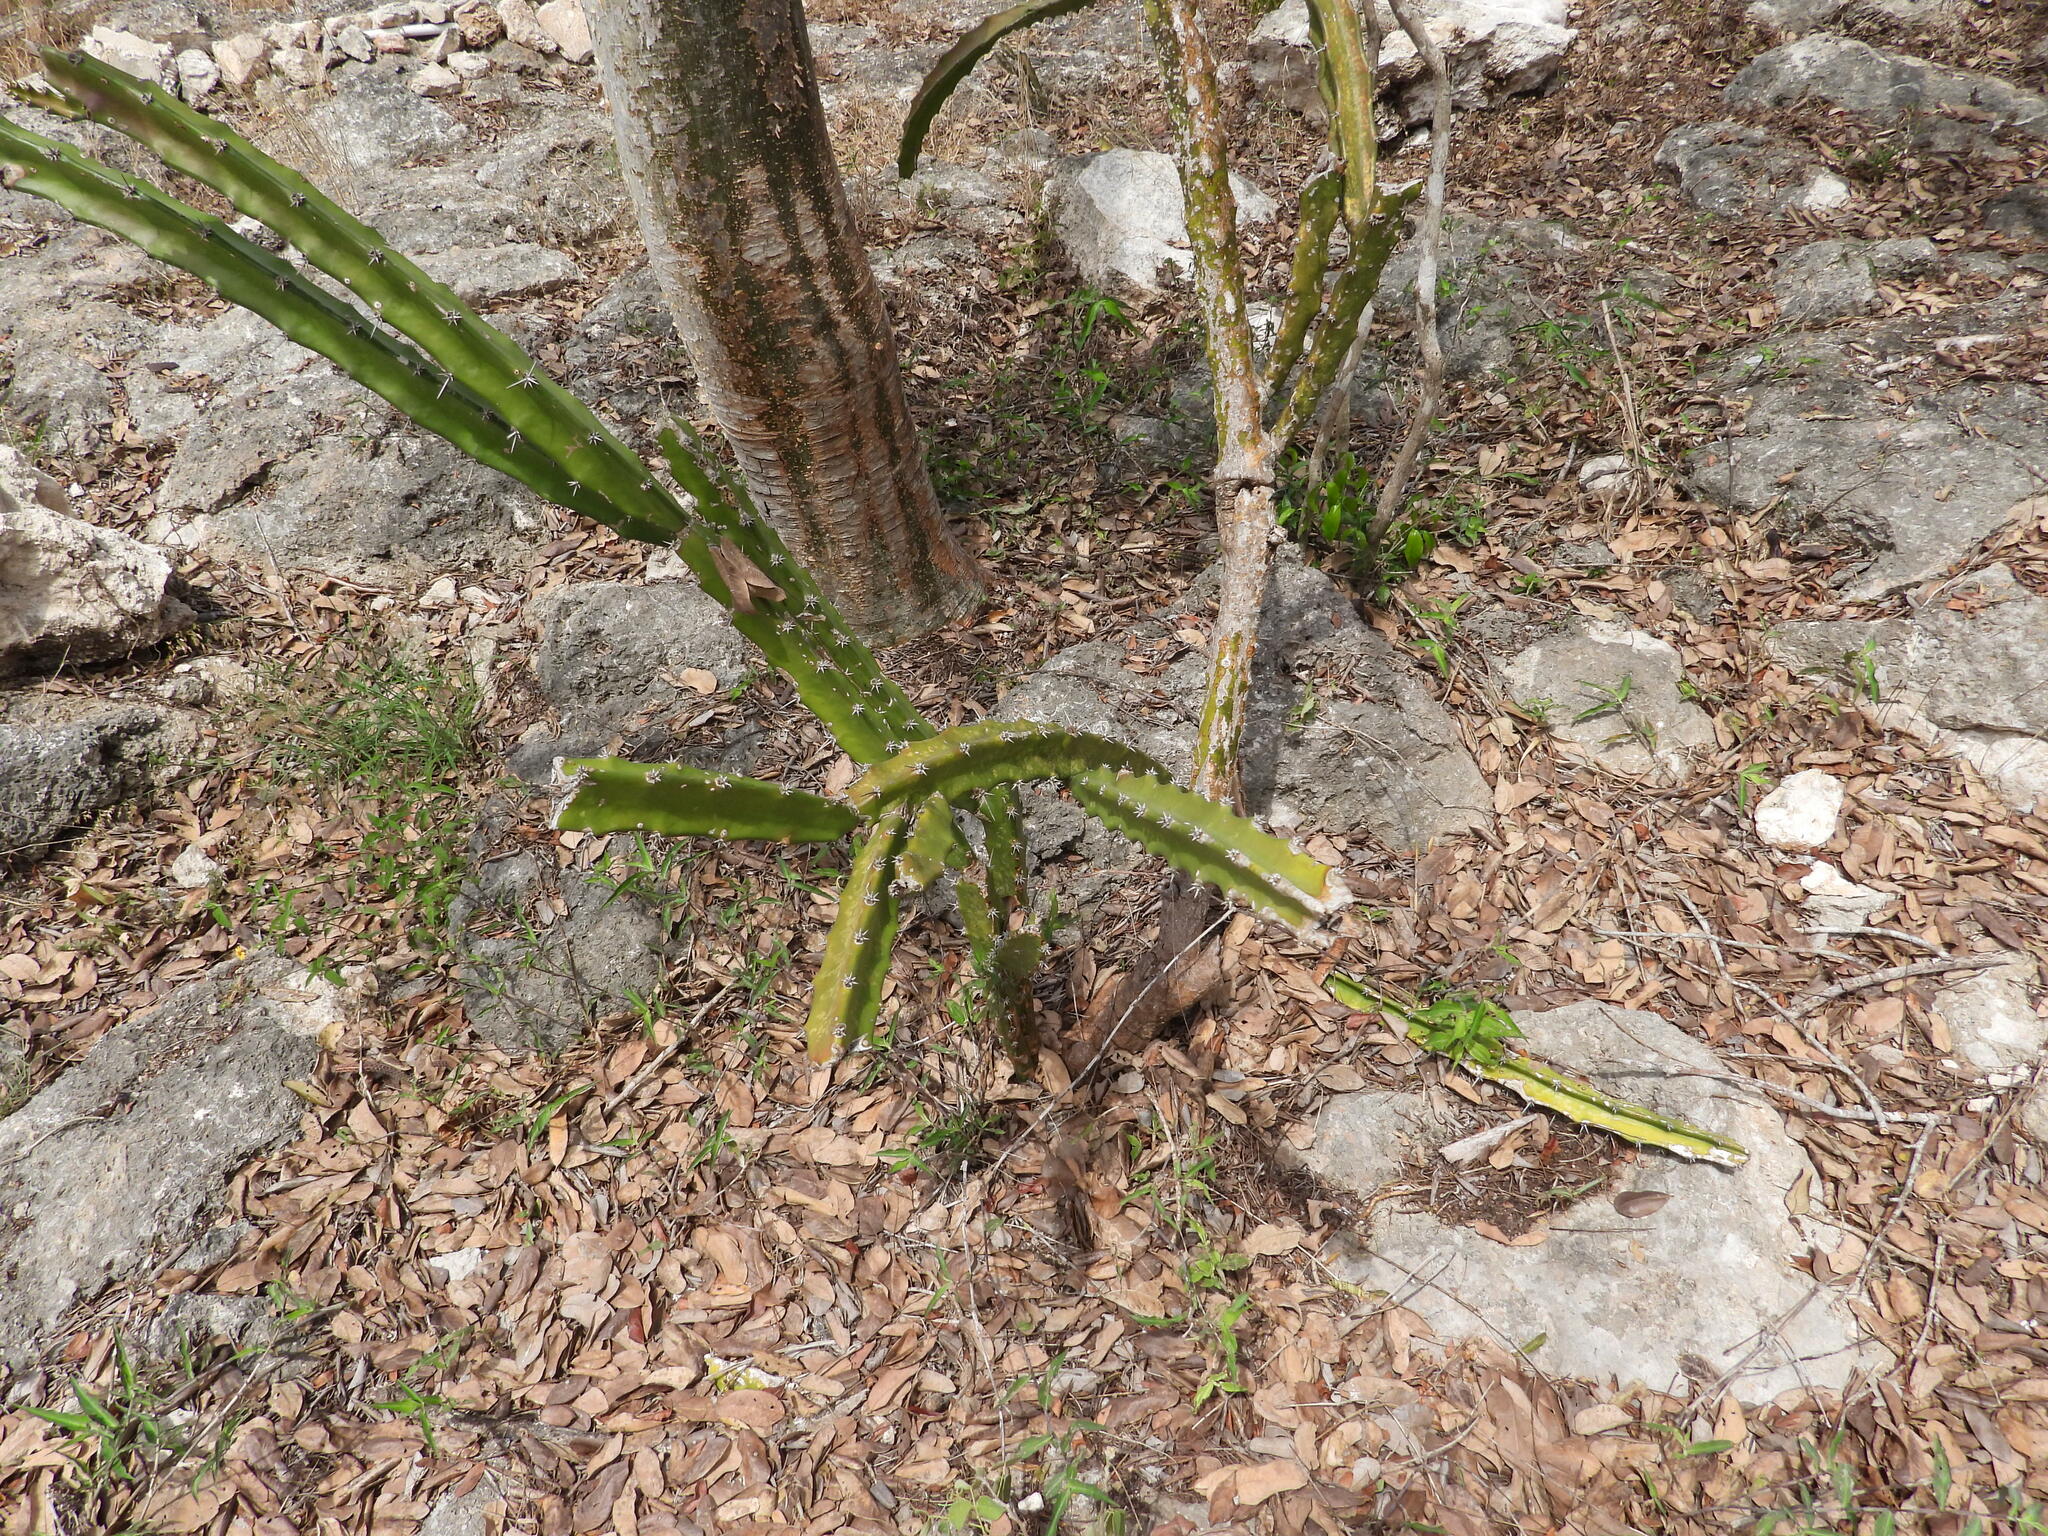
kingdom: Plantae
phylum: Tracheophyta
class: Magnoliopsida
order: Caryophyllales
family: Cactaceae
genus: Acanthocereus
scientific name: Acanthocereus tetragonus
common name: Triangle cactus
